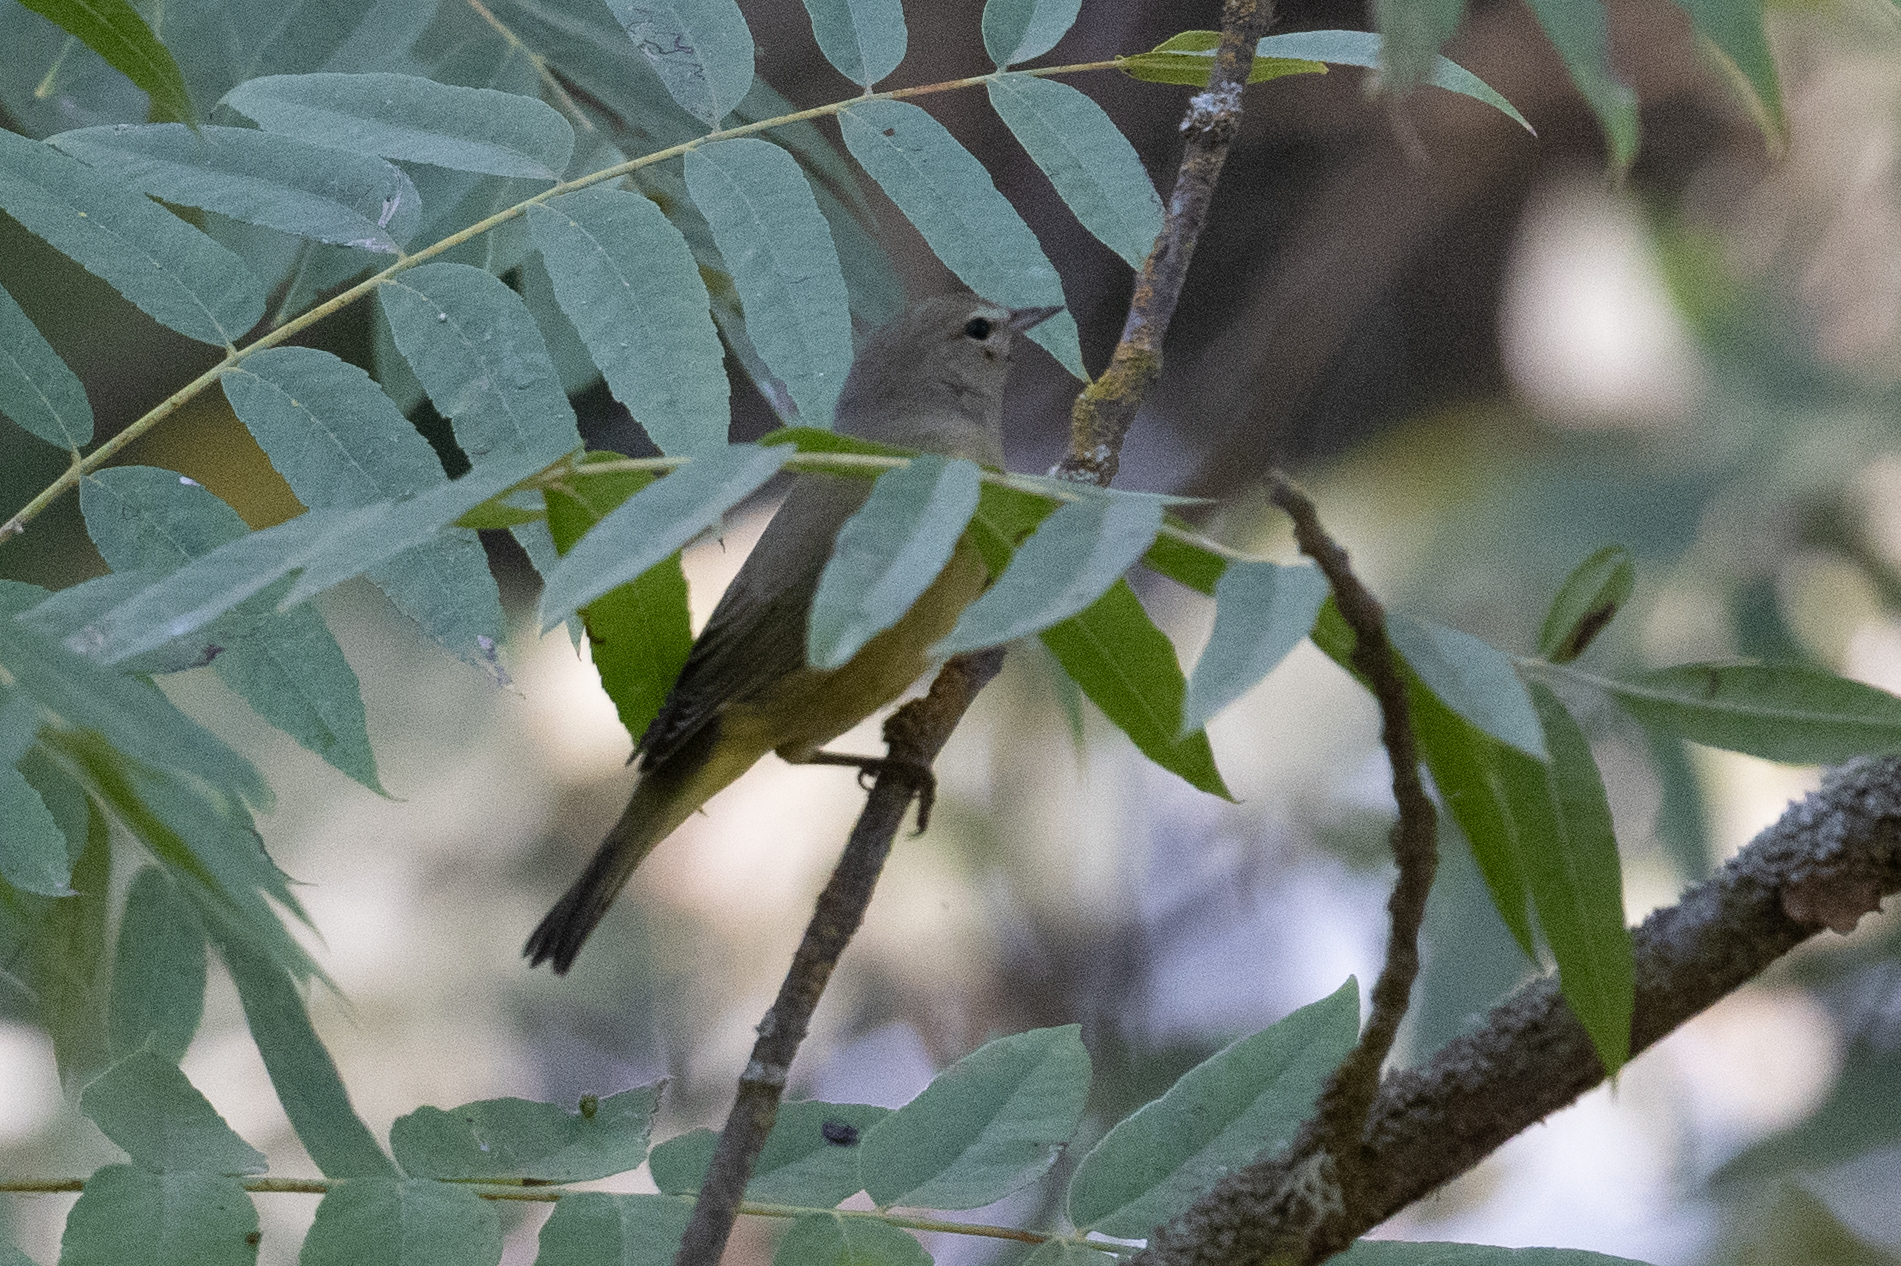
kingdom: Animalia
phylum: Chordata
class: Aves
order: Passeriformes
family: Parulidae
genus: Leiothlypis
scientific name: Leiothlypis celata
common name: Orange-crowned warbler
